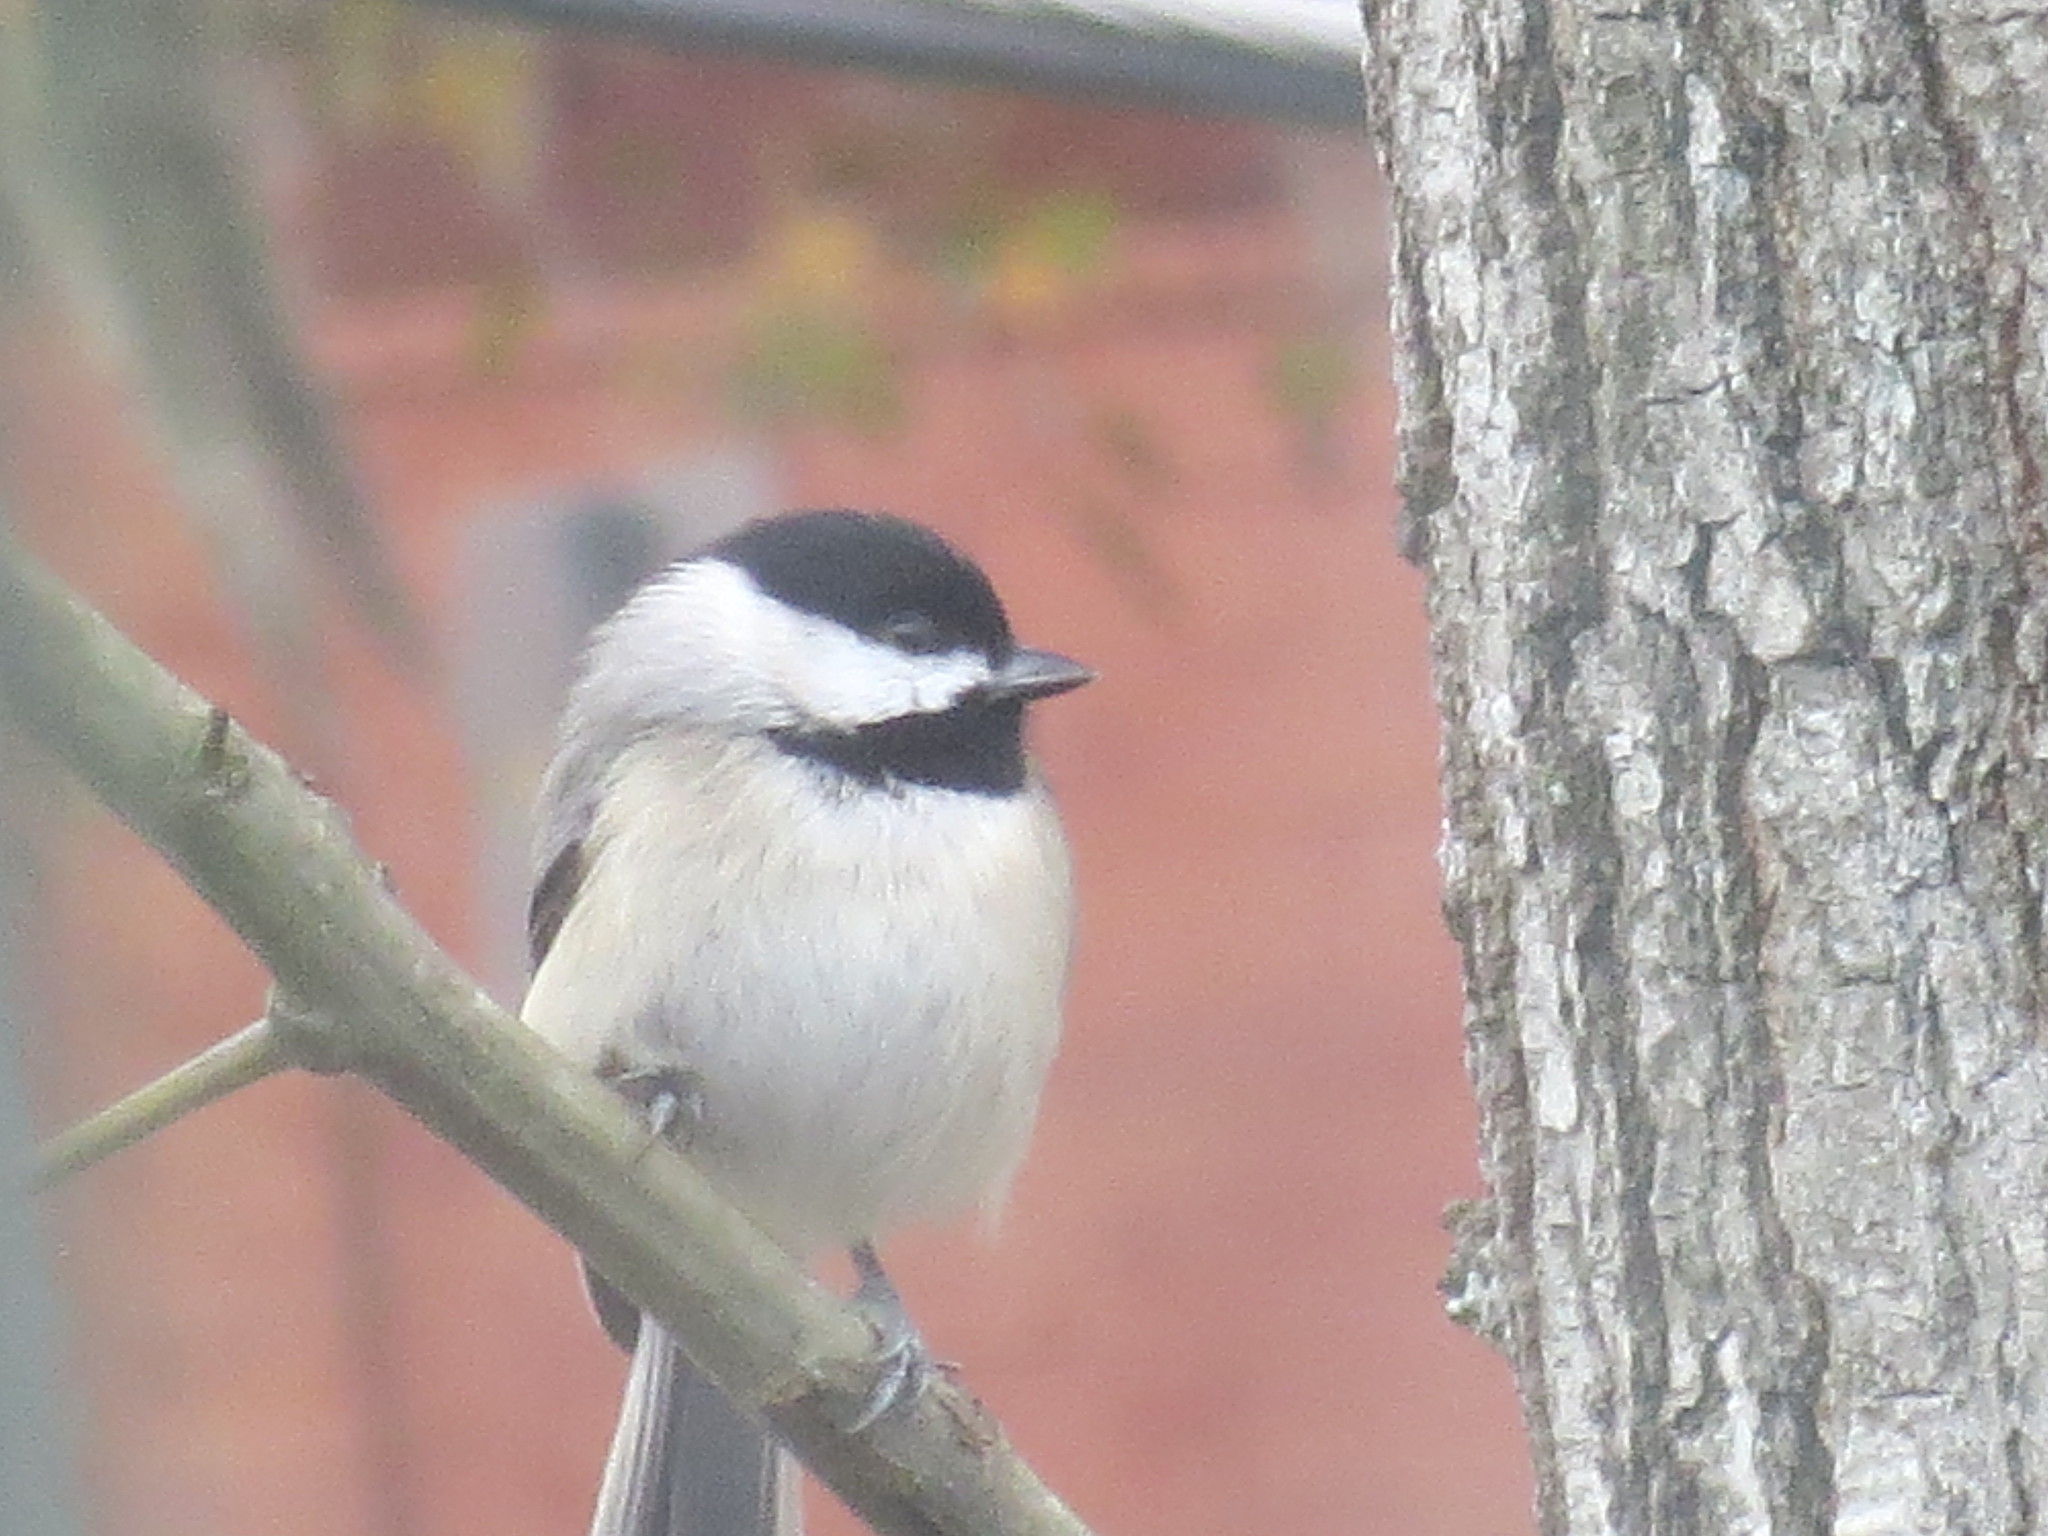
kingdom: Animalia
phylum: Chordata
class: Aves
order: Passeriformes
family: Paridae
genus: Poecile
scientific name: Poecile carolinensis
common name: Carolina chickadee
